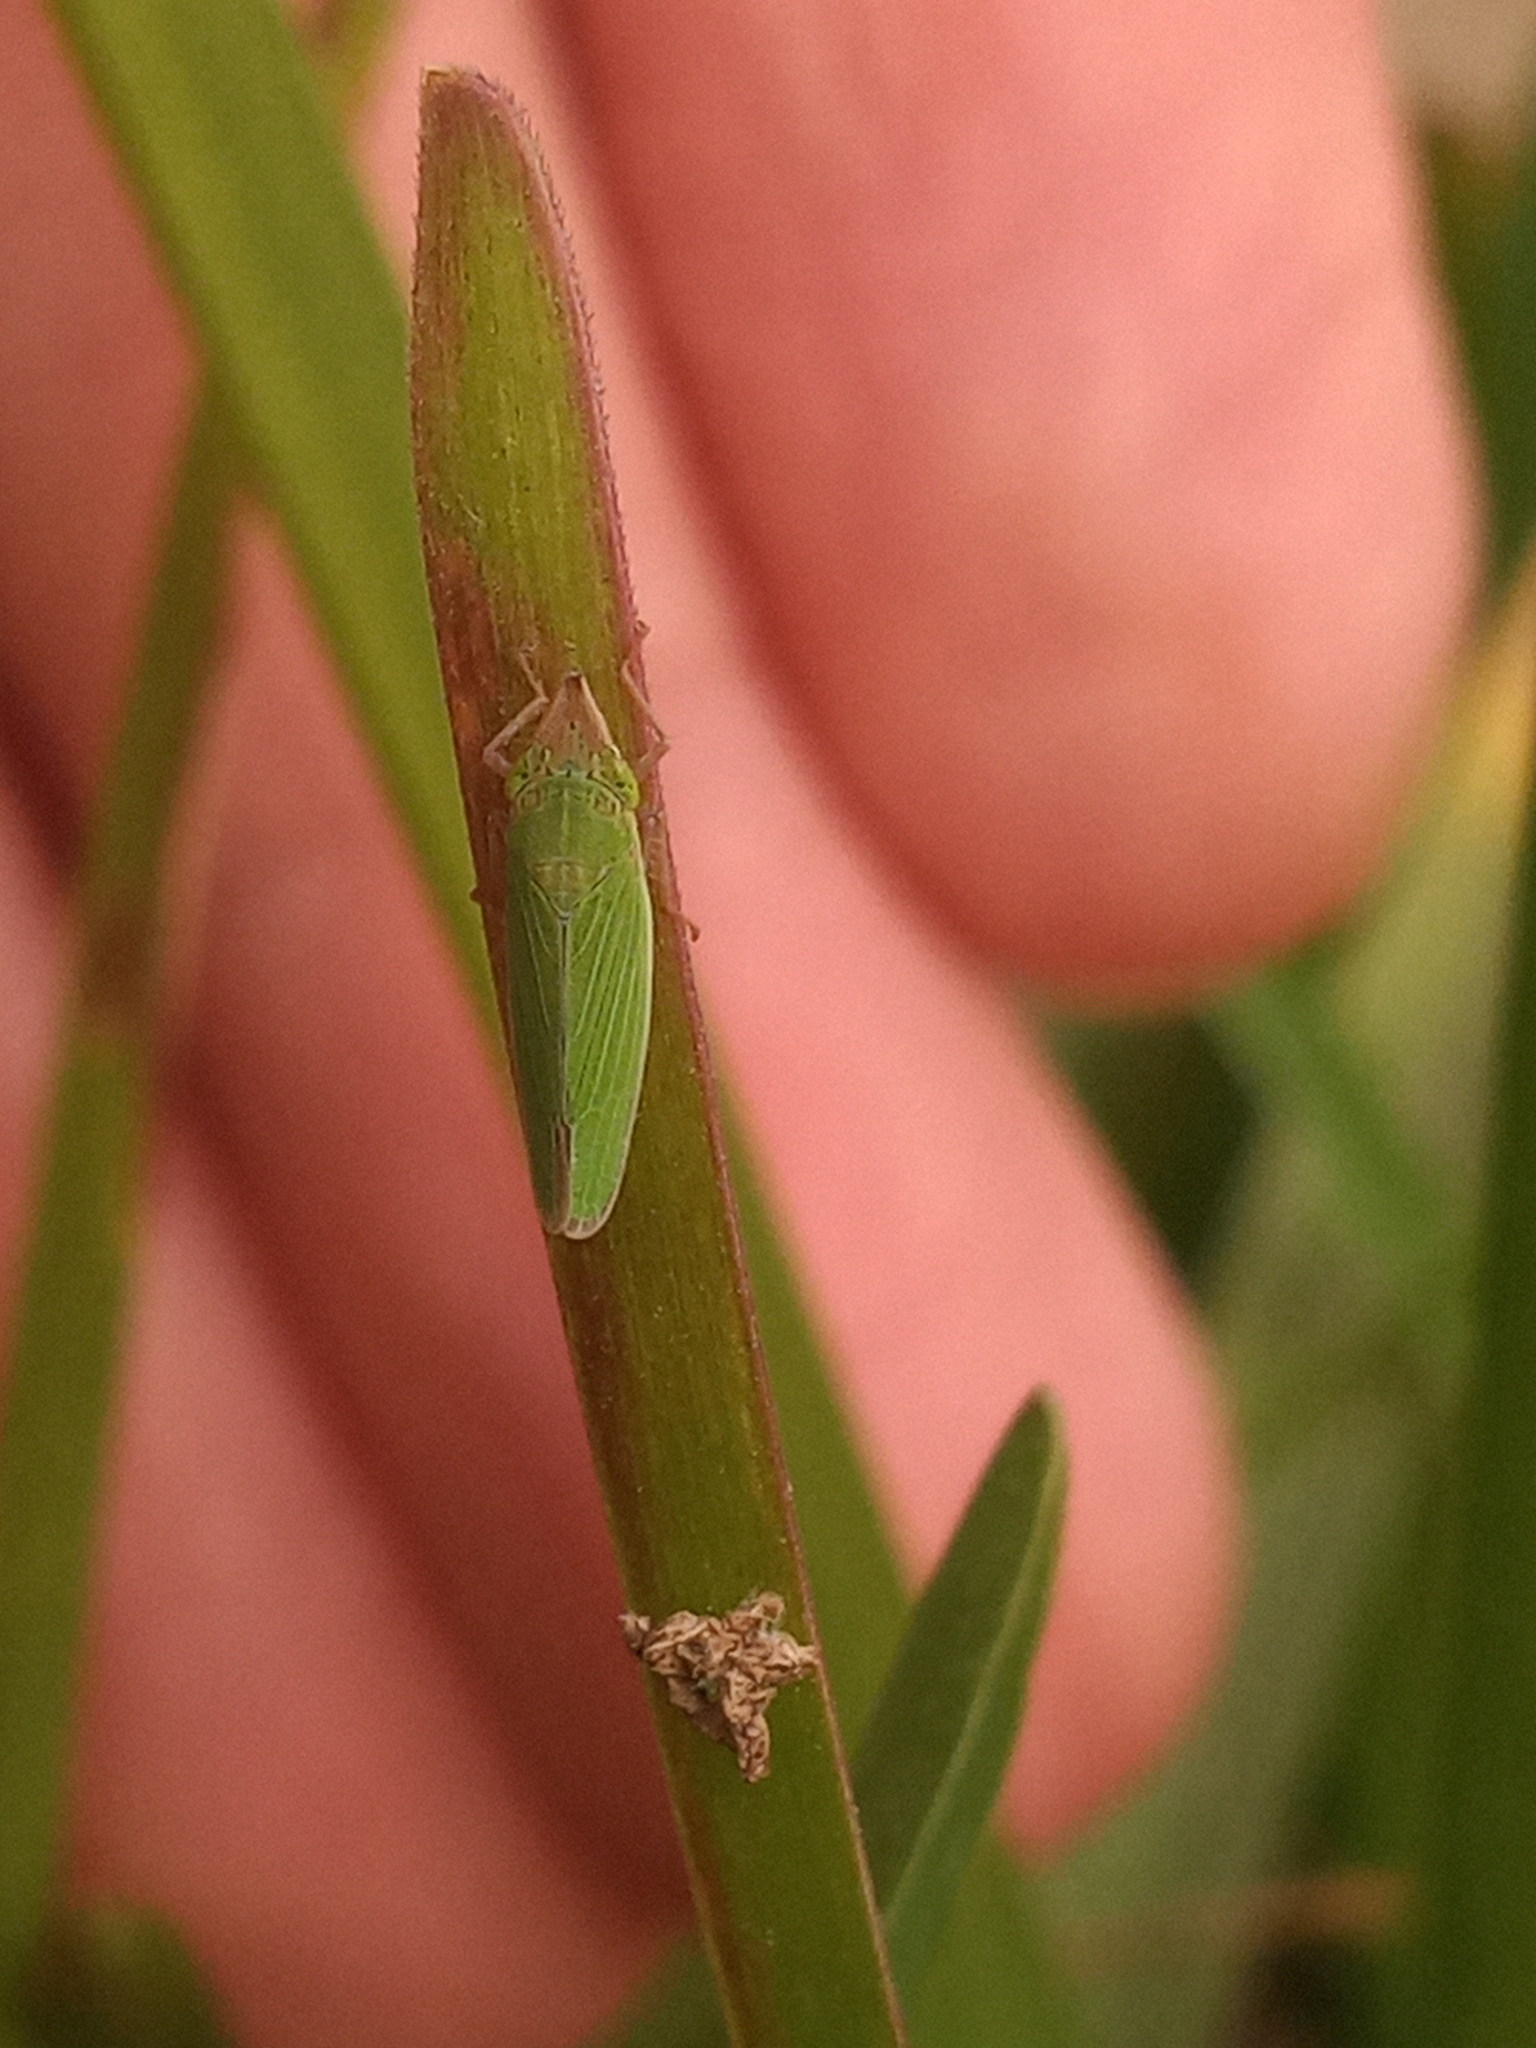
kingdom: Animalia
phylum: Arthropoda
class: Insecta
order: Hemiptera
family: Cicadellidae
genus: Draeculacephala
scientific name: Draeculacephala soluta
